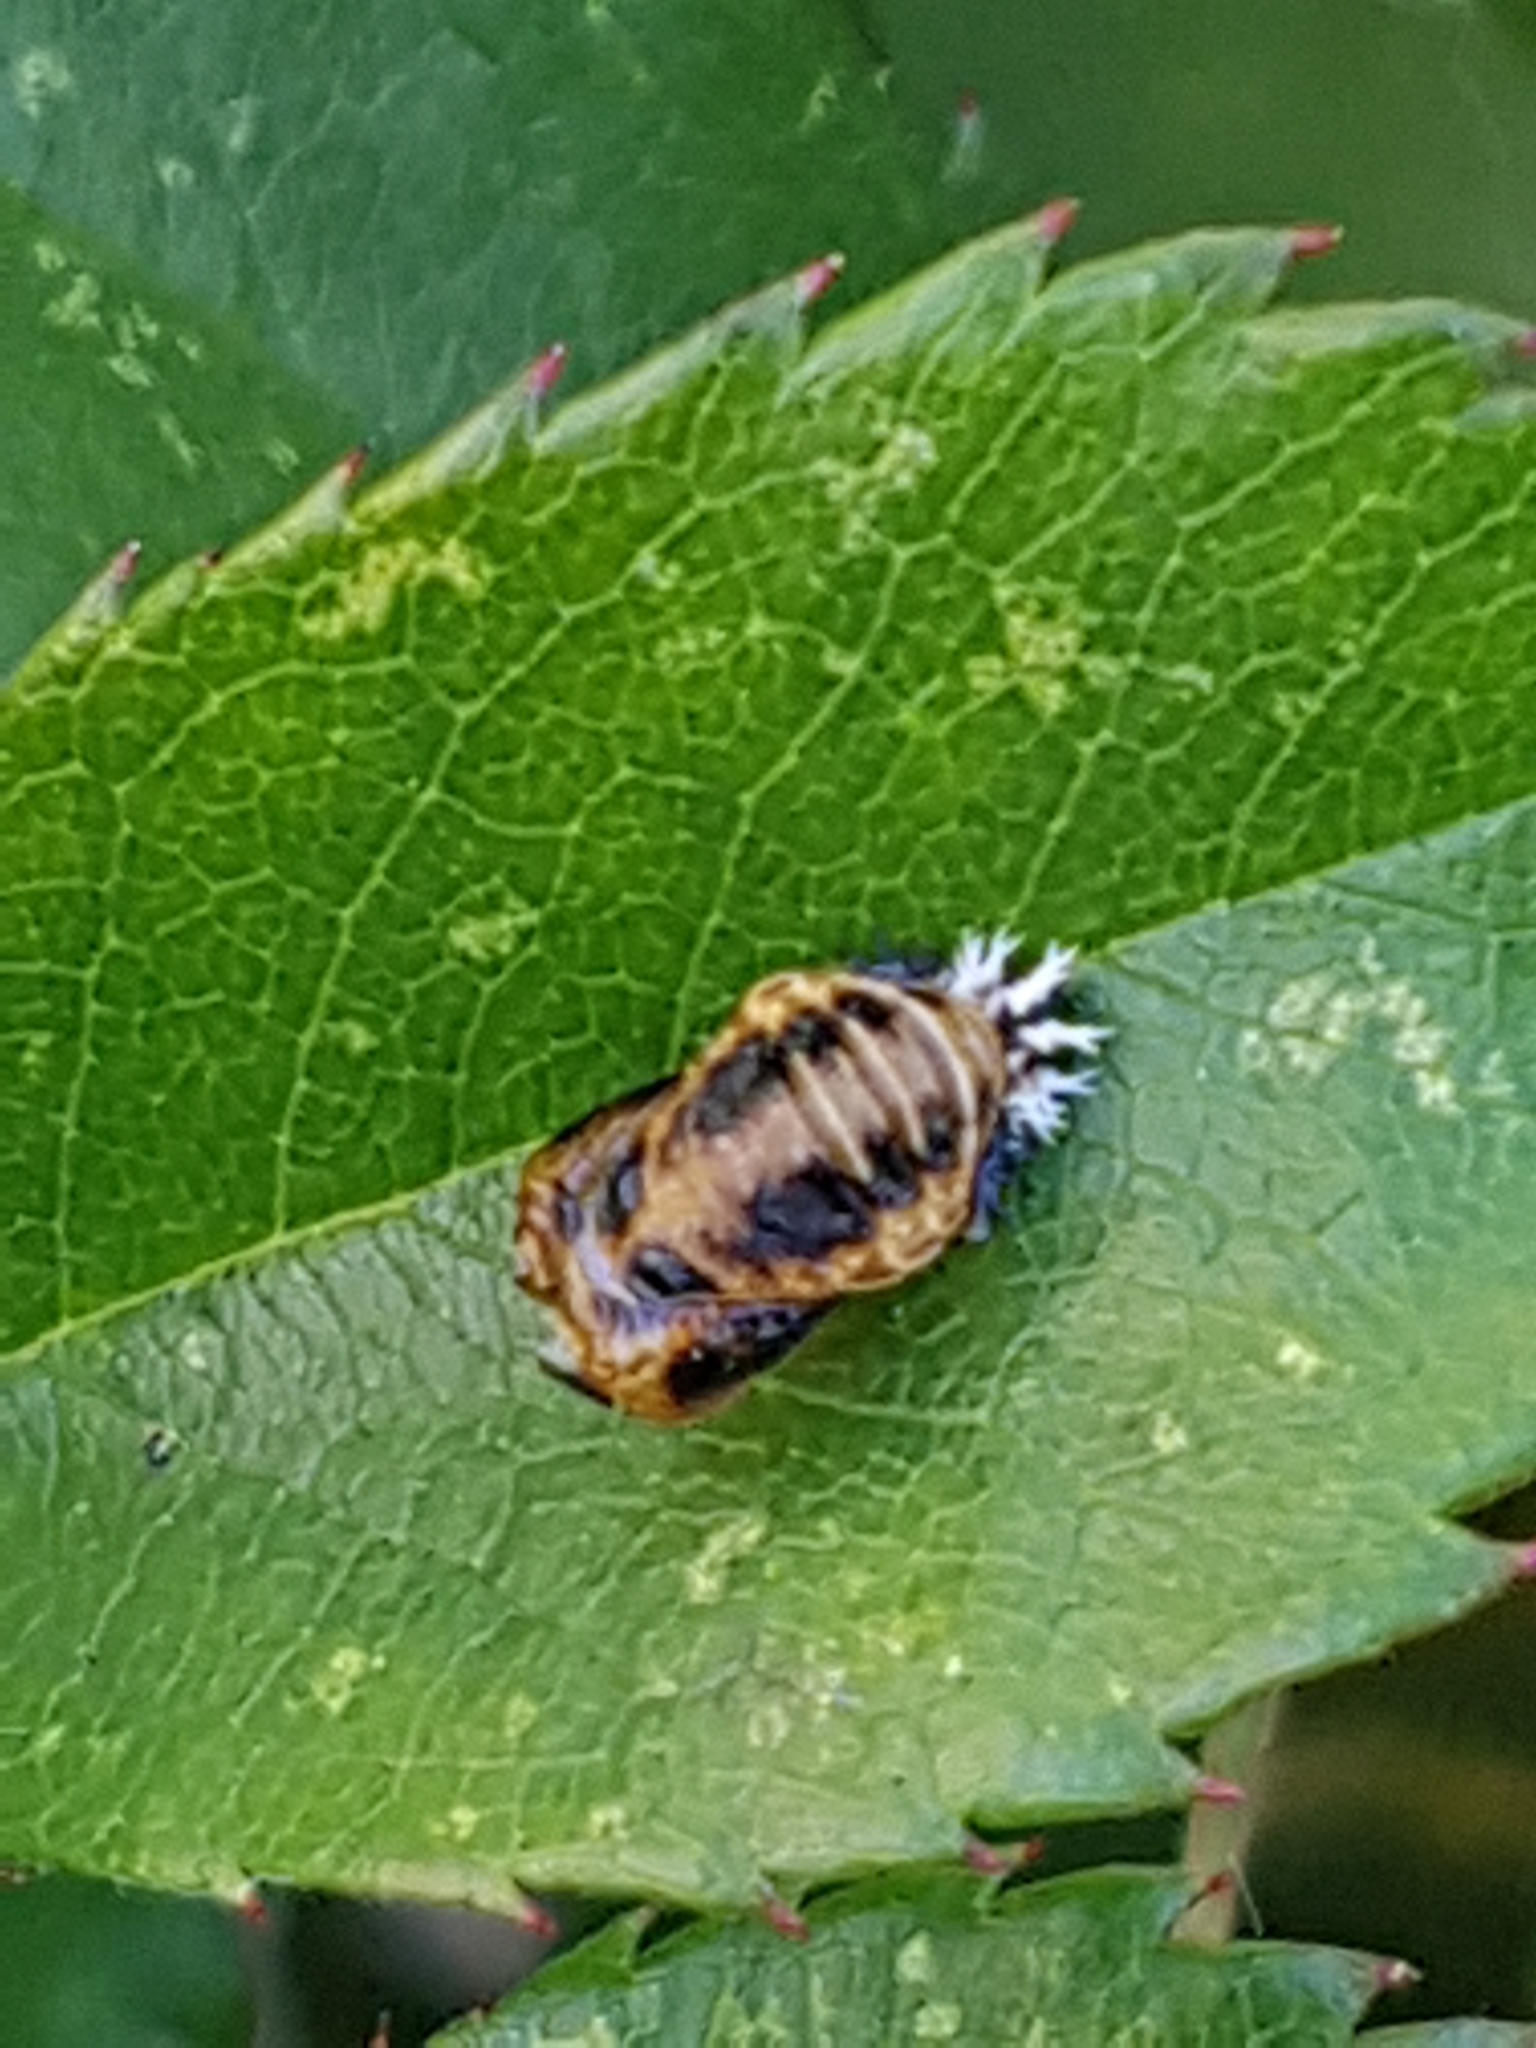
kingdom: Animalia
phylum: Arthropoda
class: Insecta
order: Coleoptera
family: Coccinellidae
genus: Harmonia
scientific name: Harmonia axyridis
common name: Harlequin ladybird
